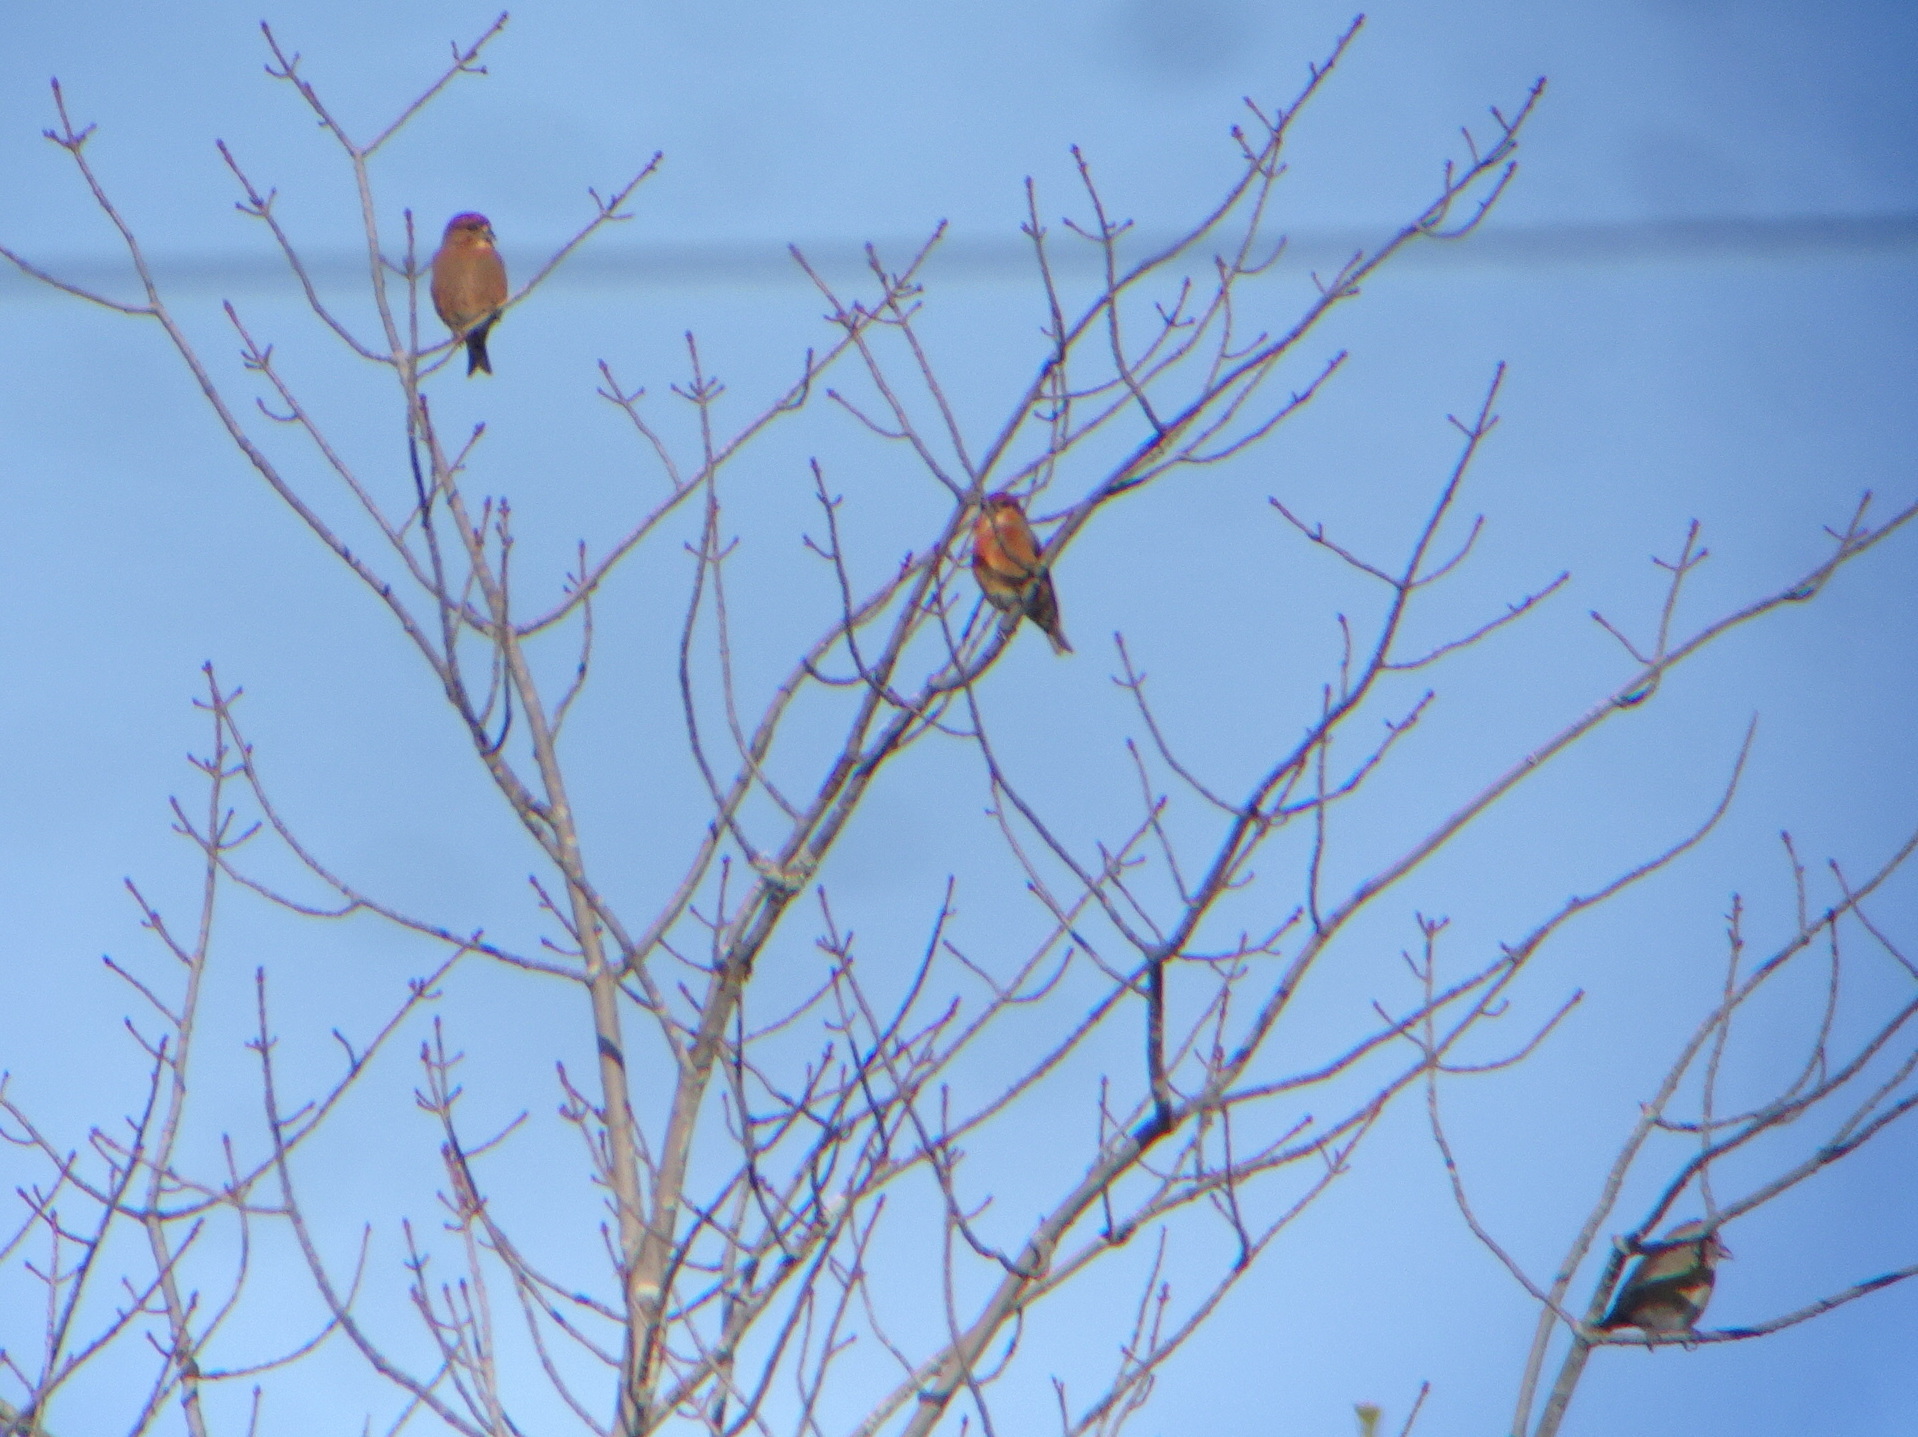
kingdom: Animalia
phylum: Chordata
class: Aves
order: Passeriformes
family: Fringillidae
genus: Loxia
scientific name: Loxia curvirostra
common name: Red crossbill
